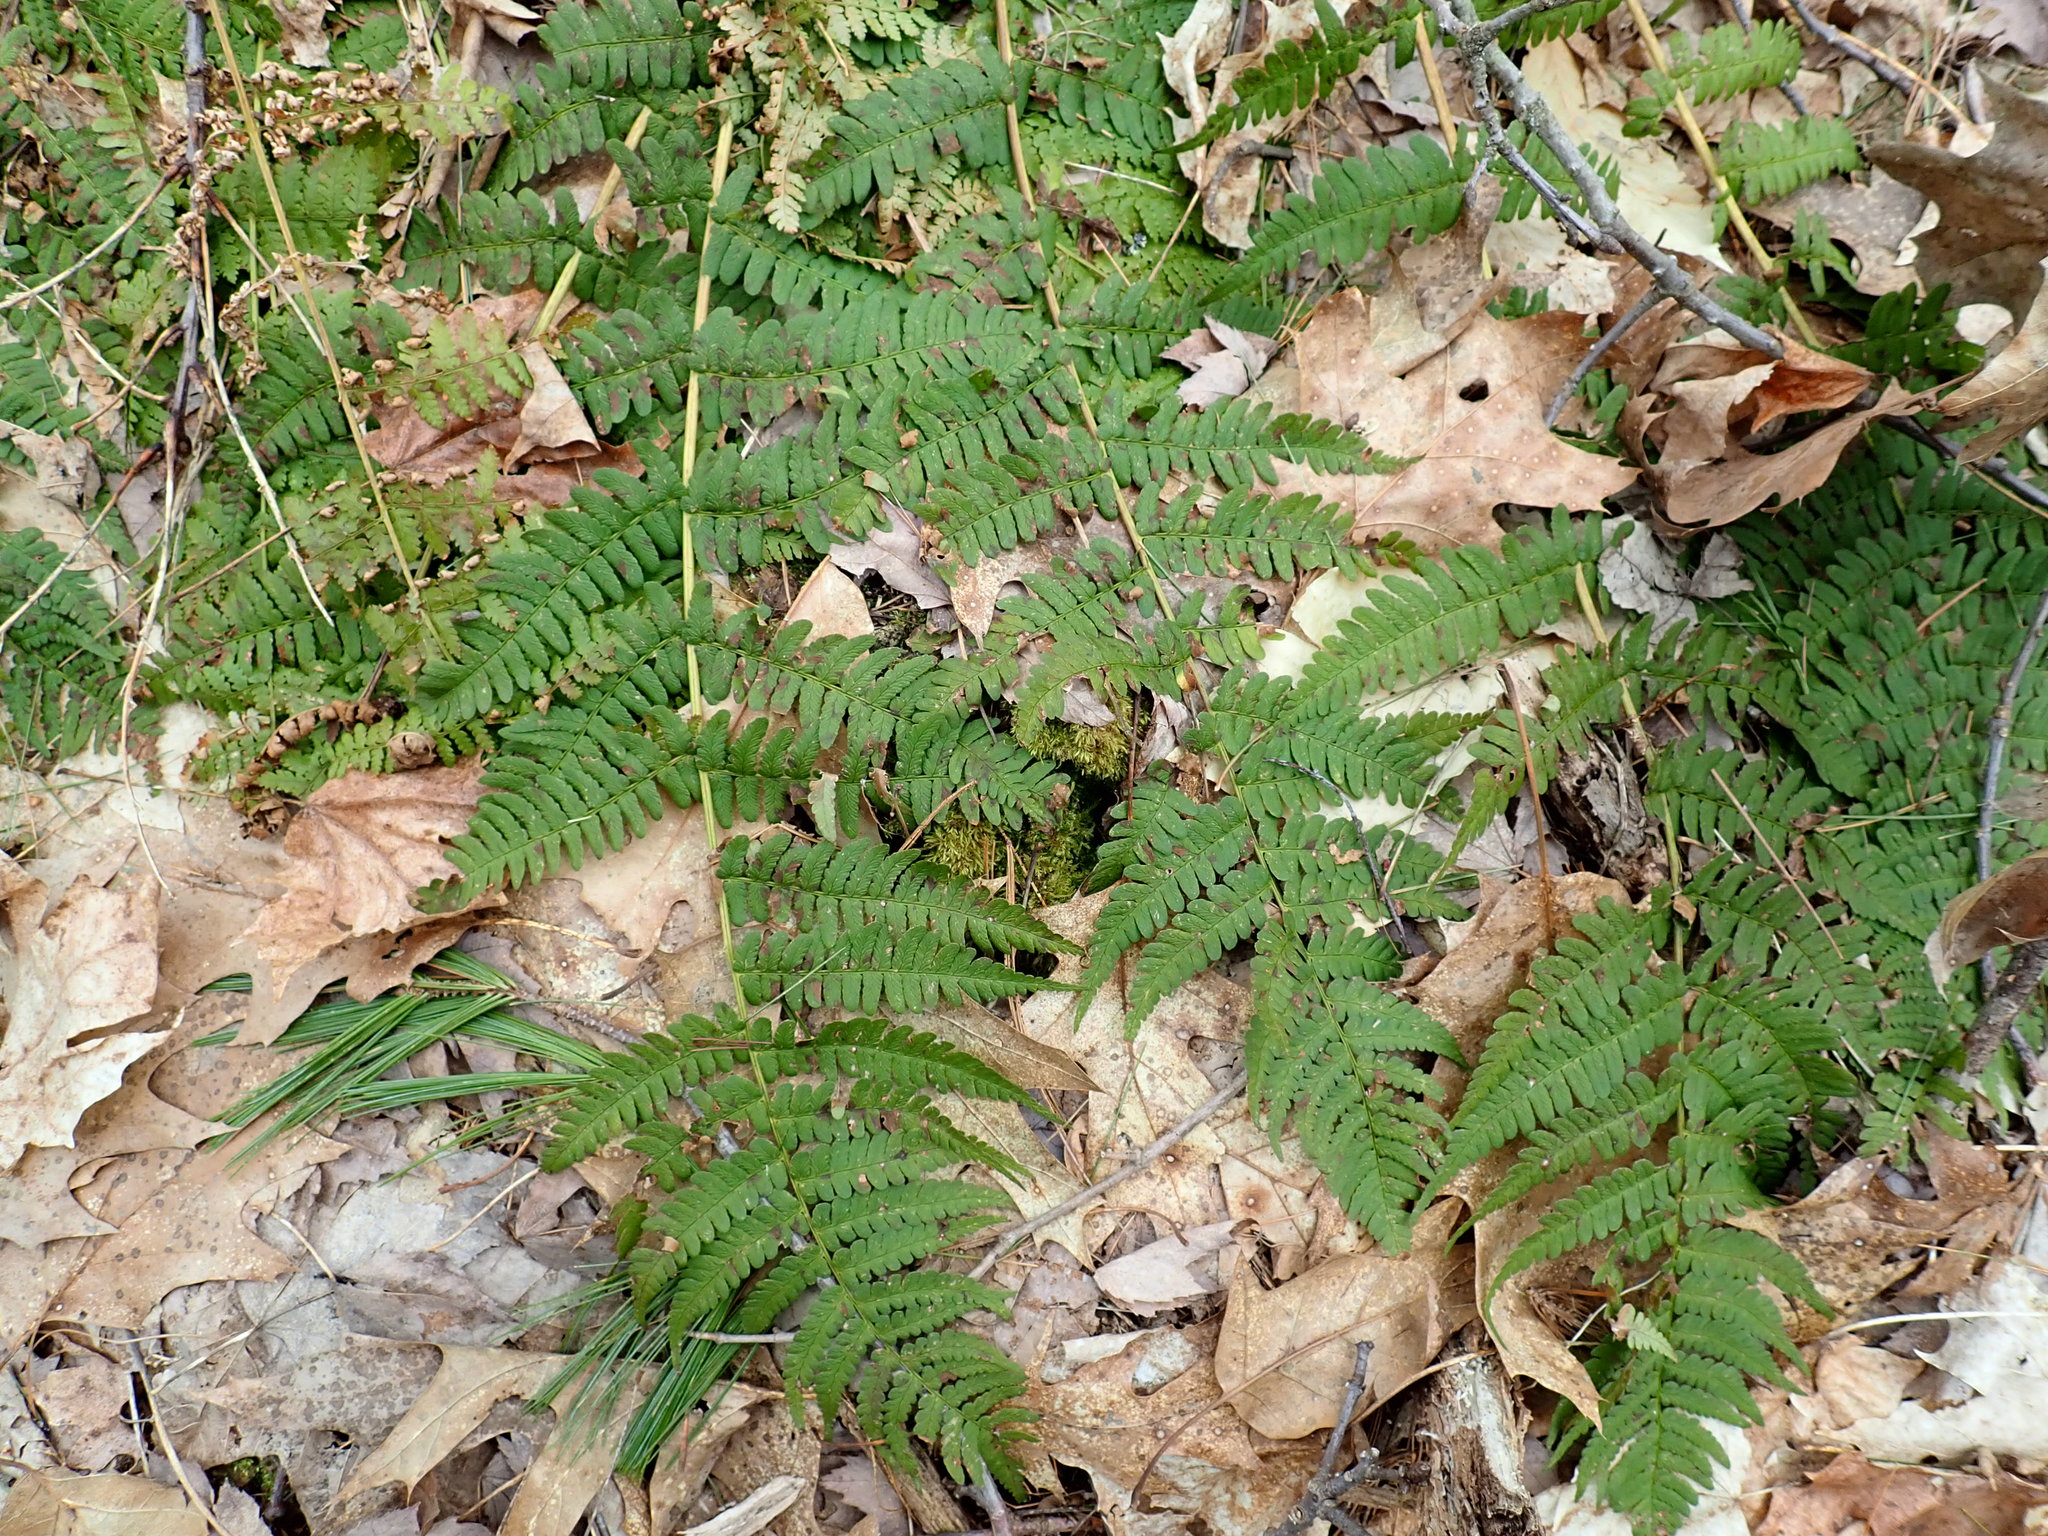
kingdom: Plantae
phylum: Tracheophyta
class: Polypodiopsida
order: Polypodiales
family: Dryopteridaceae
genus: Dryopteris
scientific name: Dryopteris marginalis
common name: Marginal wood fern
